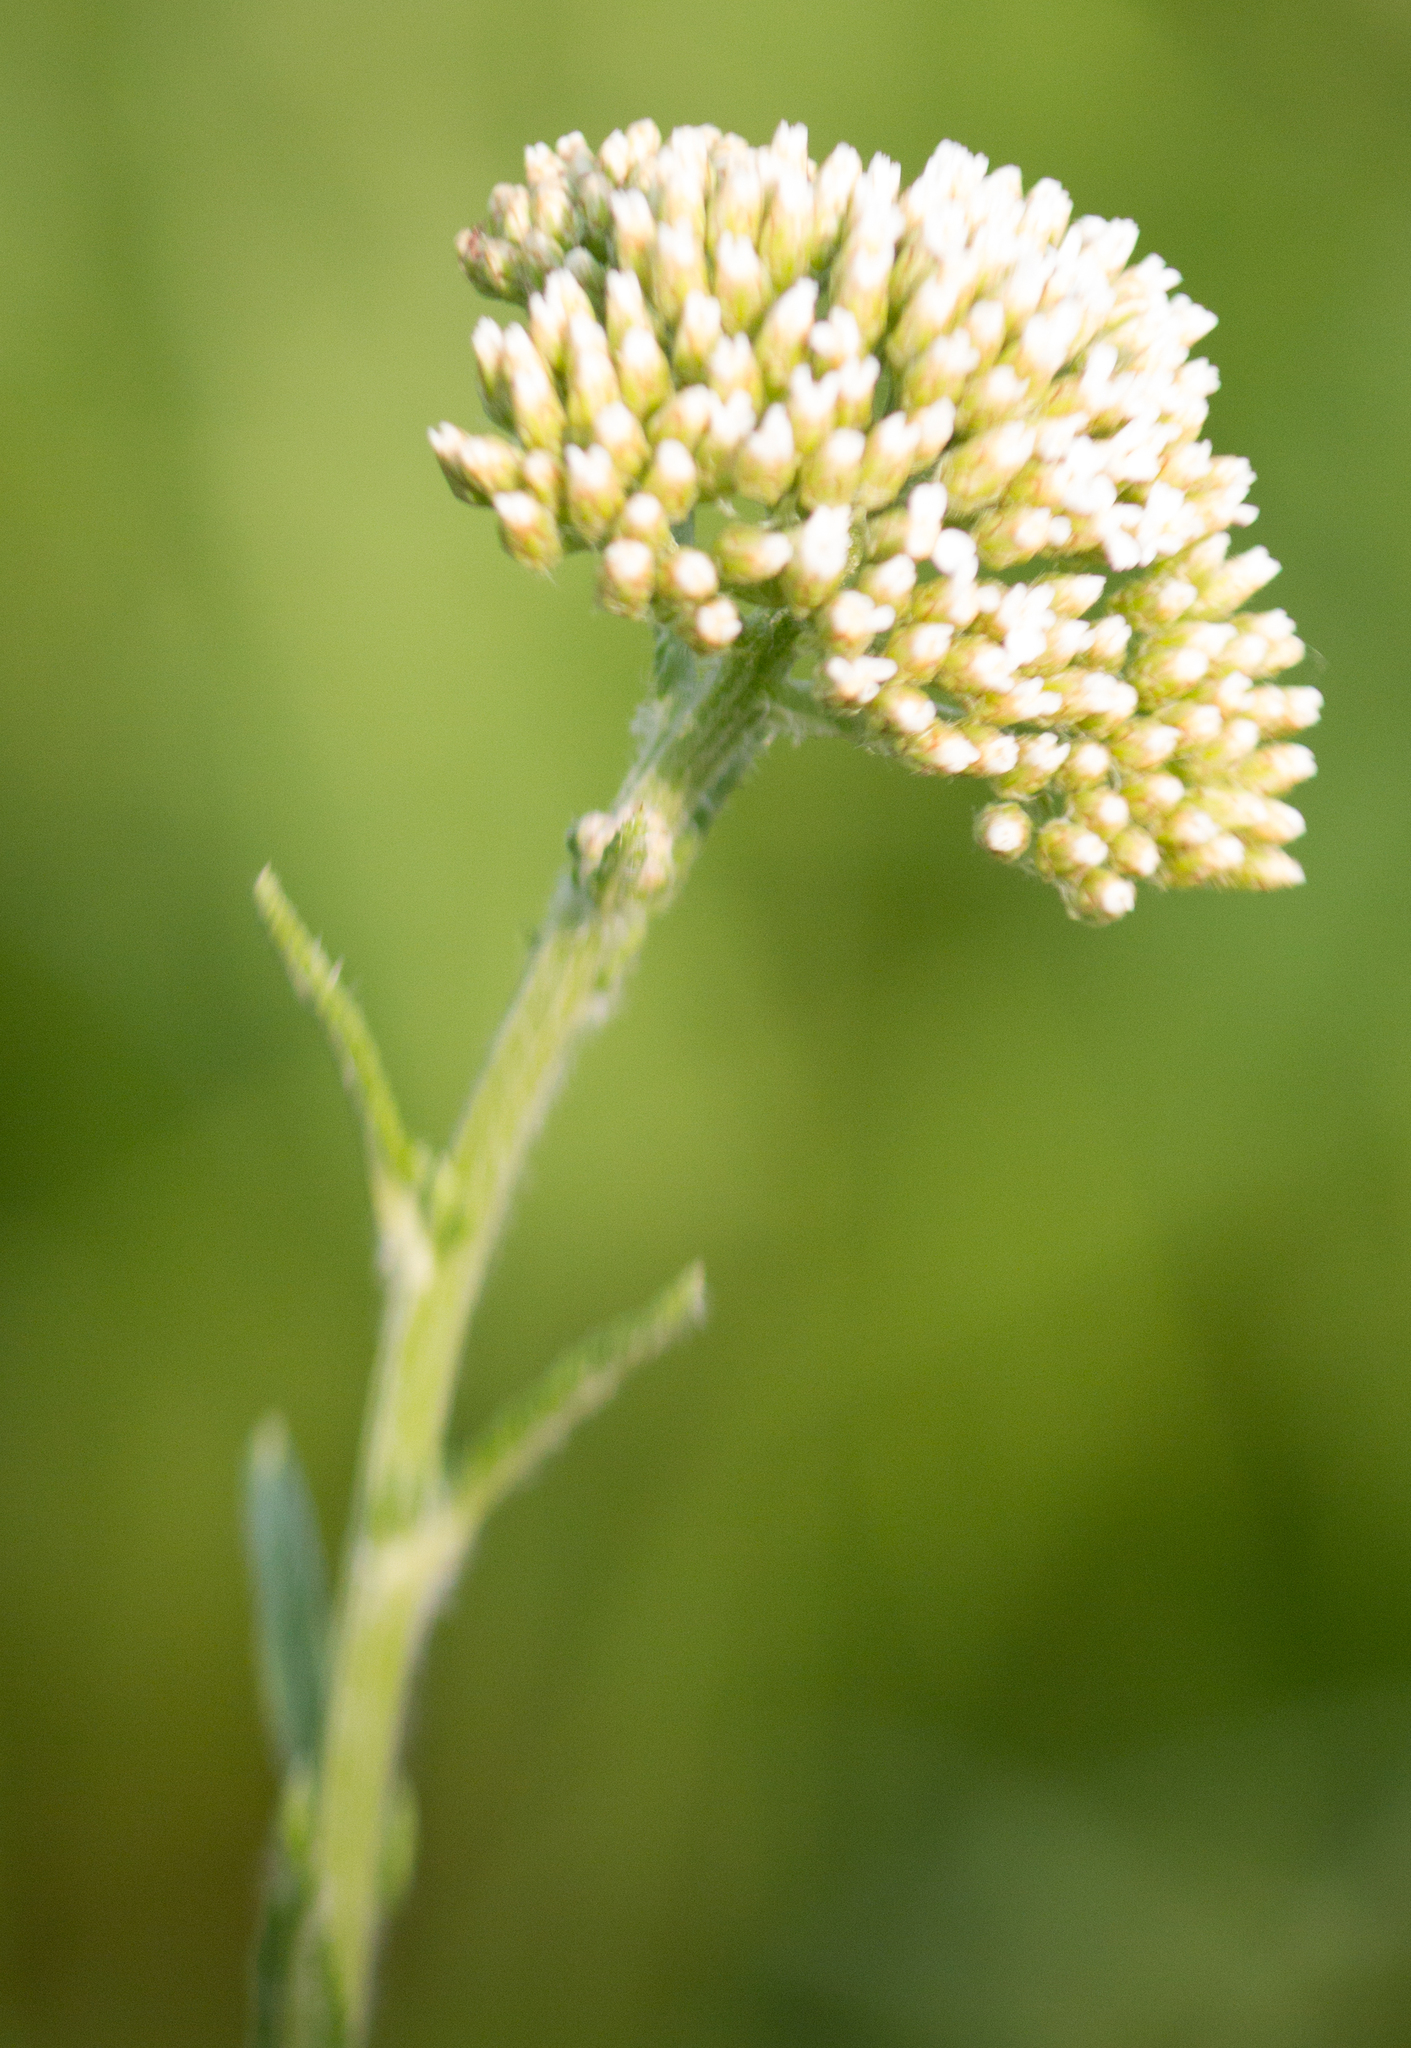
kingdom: Plantae
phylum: Tracheophyta
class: Magnoliopsida
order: Asterales
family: Asteraceae
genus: Achillea
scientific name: Achillea millefolium
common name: Yarrow
